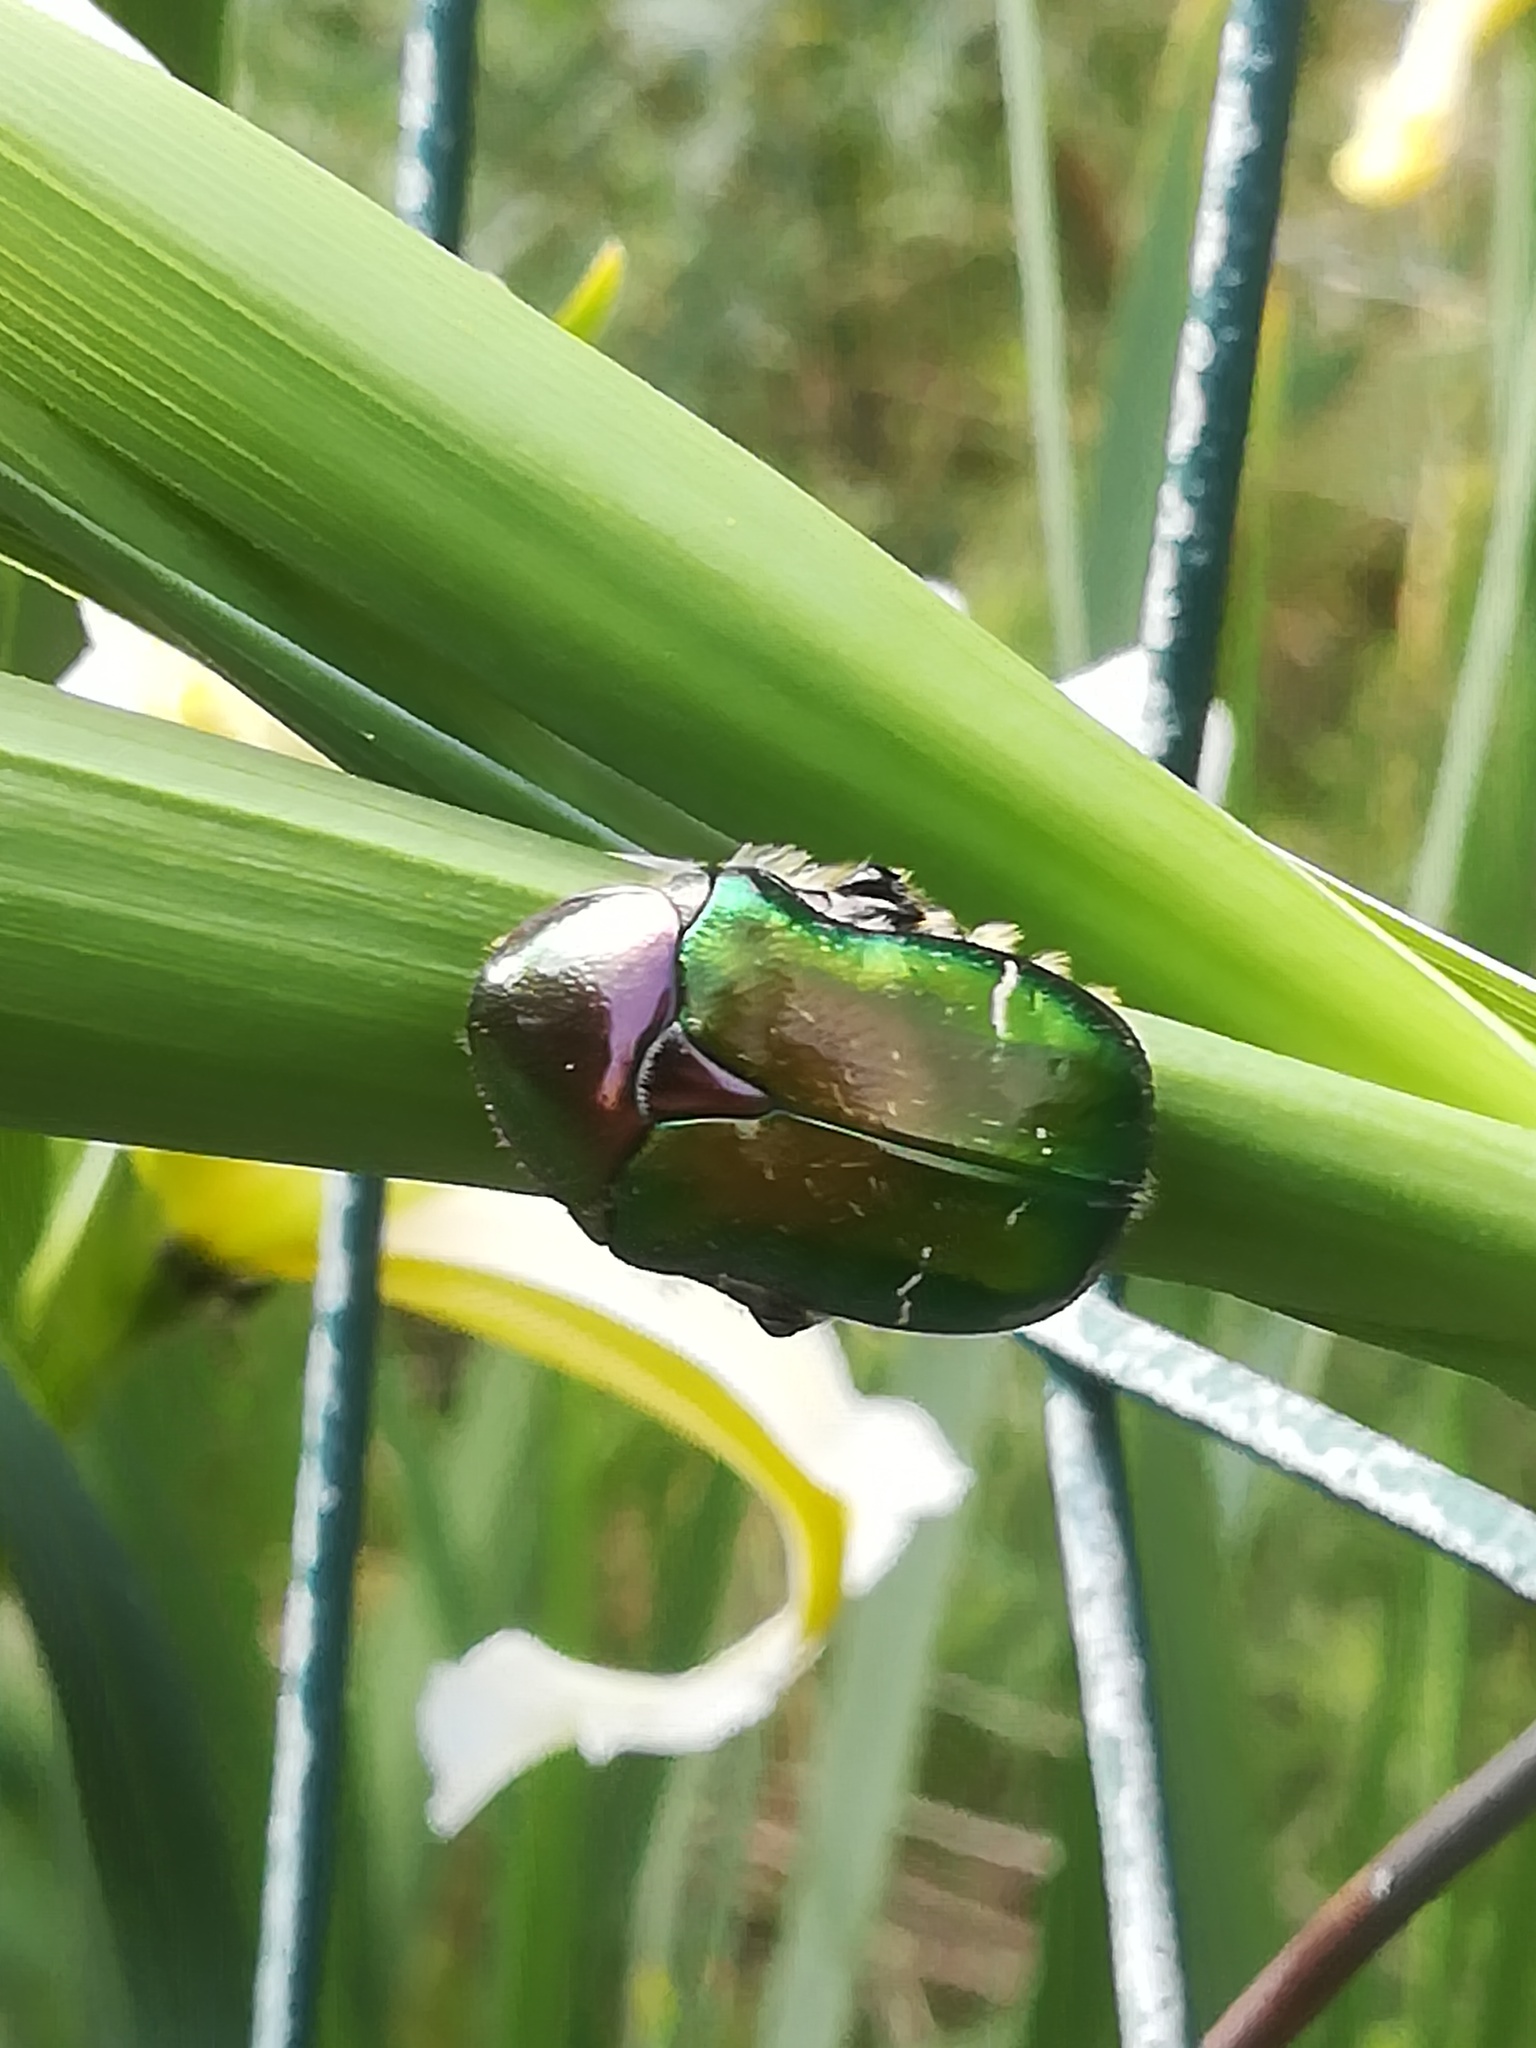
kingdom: Animalia
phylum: Arthropoda
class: Insecta
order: Coleoptera
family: Scarabaeidae
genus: Cetonia
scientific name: Cetonia aurata
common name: Rose chafer
